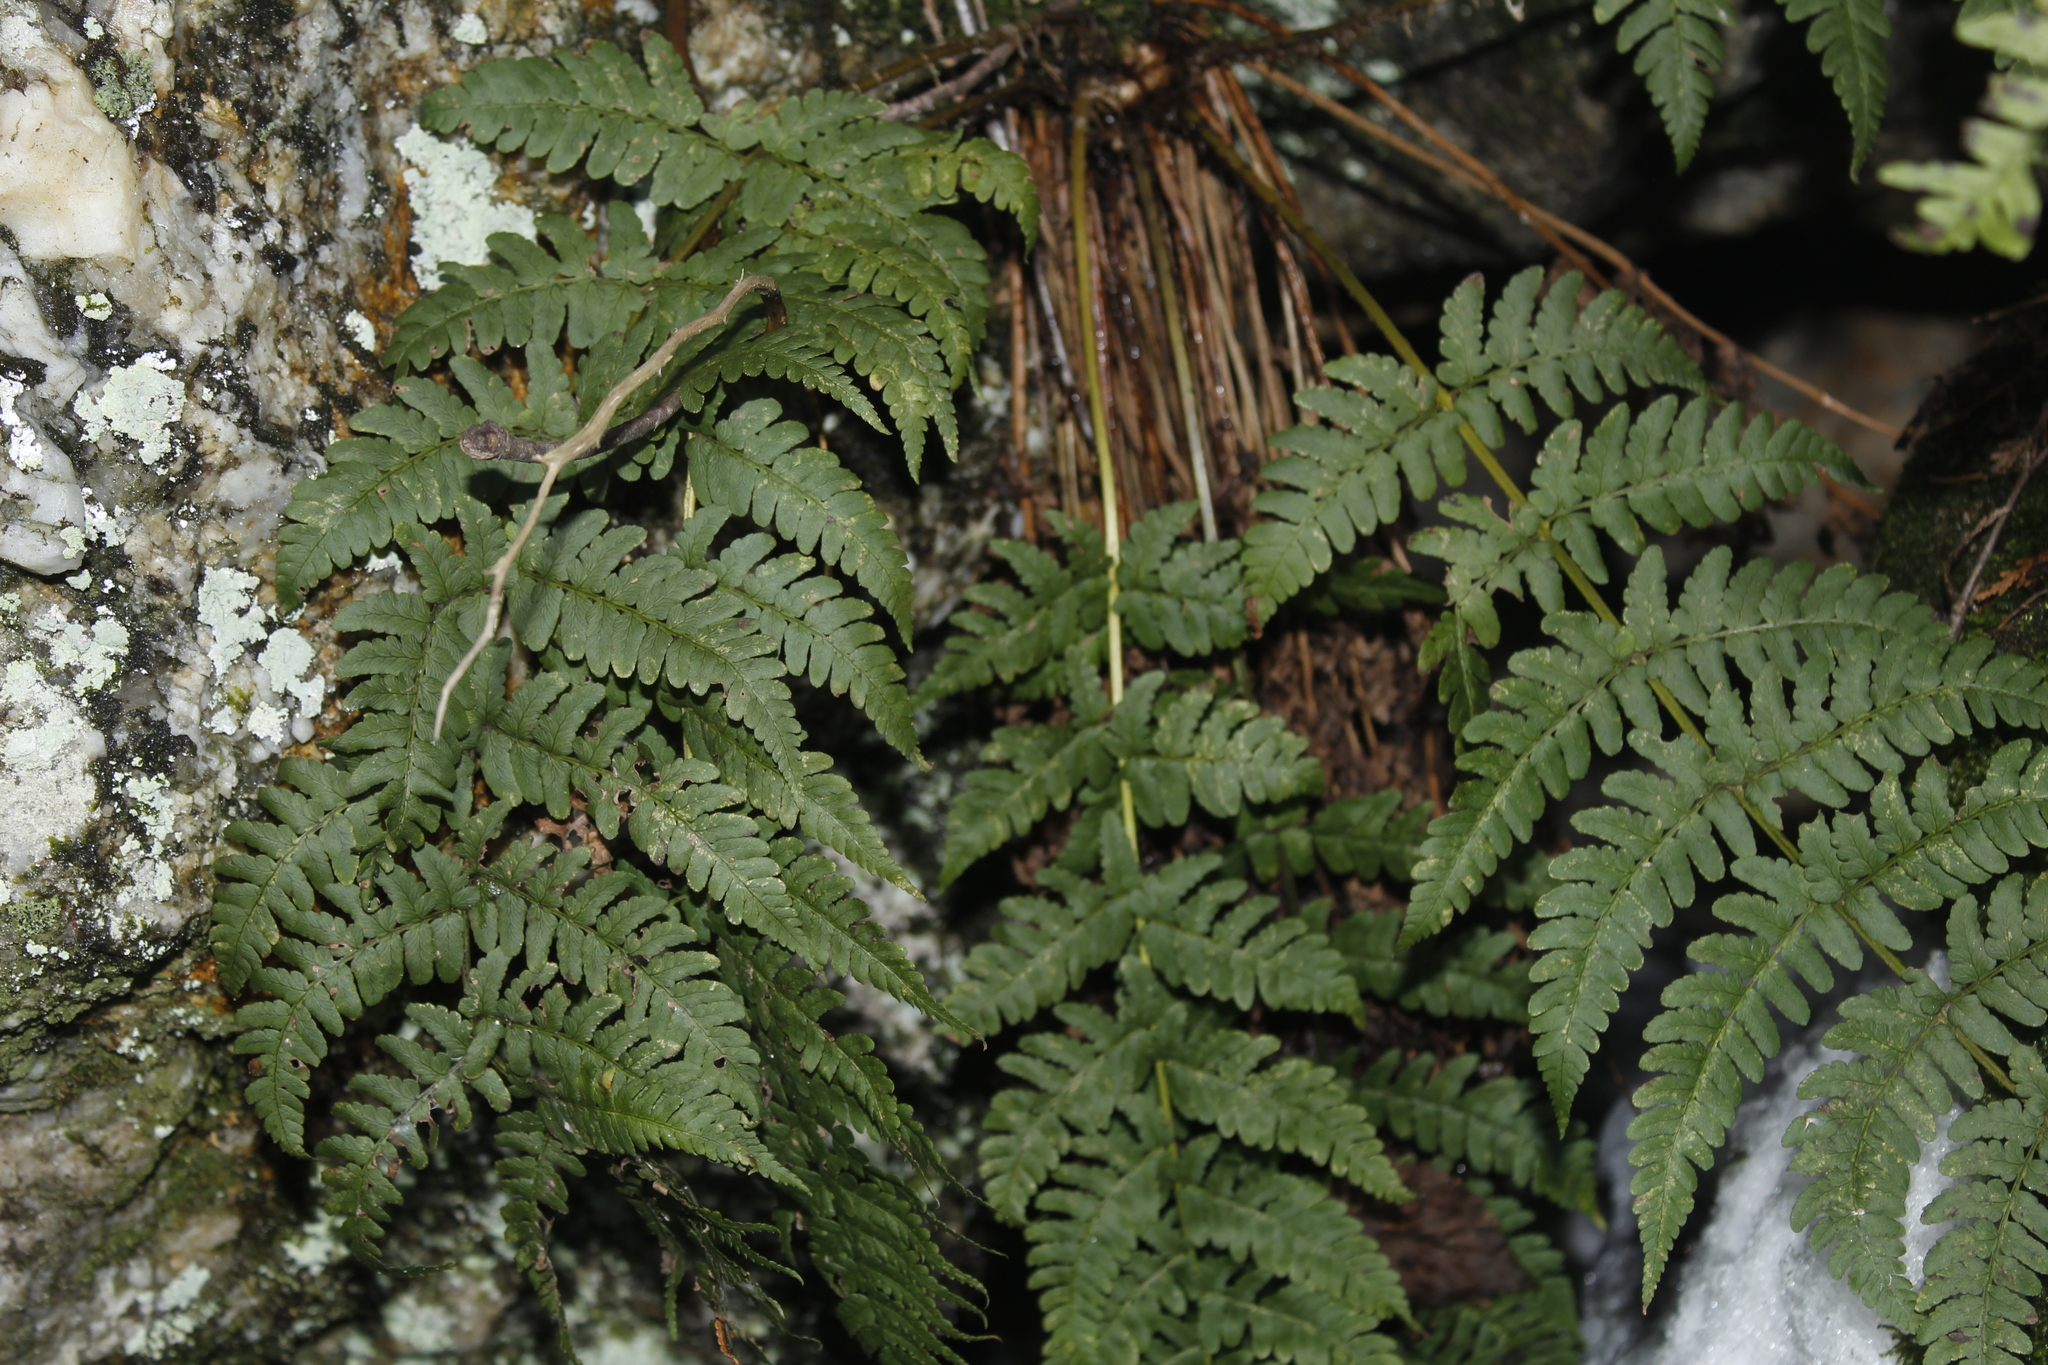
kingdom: Plantae
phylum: Tracheophyta
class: Polypodiopsida
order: Polypodiales
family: Dryopteridaceae
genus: Dryopteris
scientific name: Dryopteris marginalis
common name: Marginal wood fern
